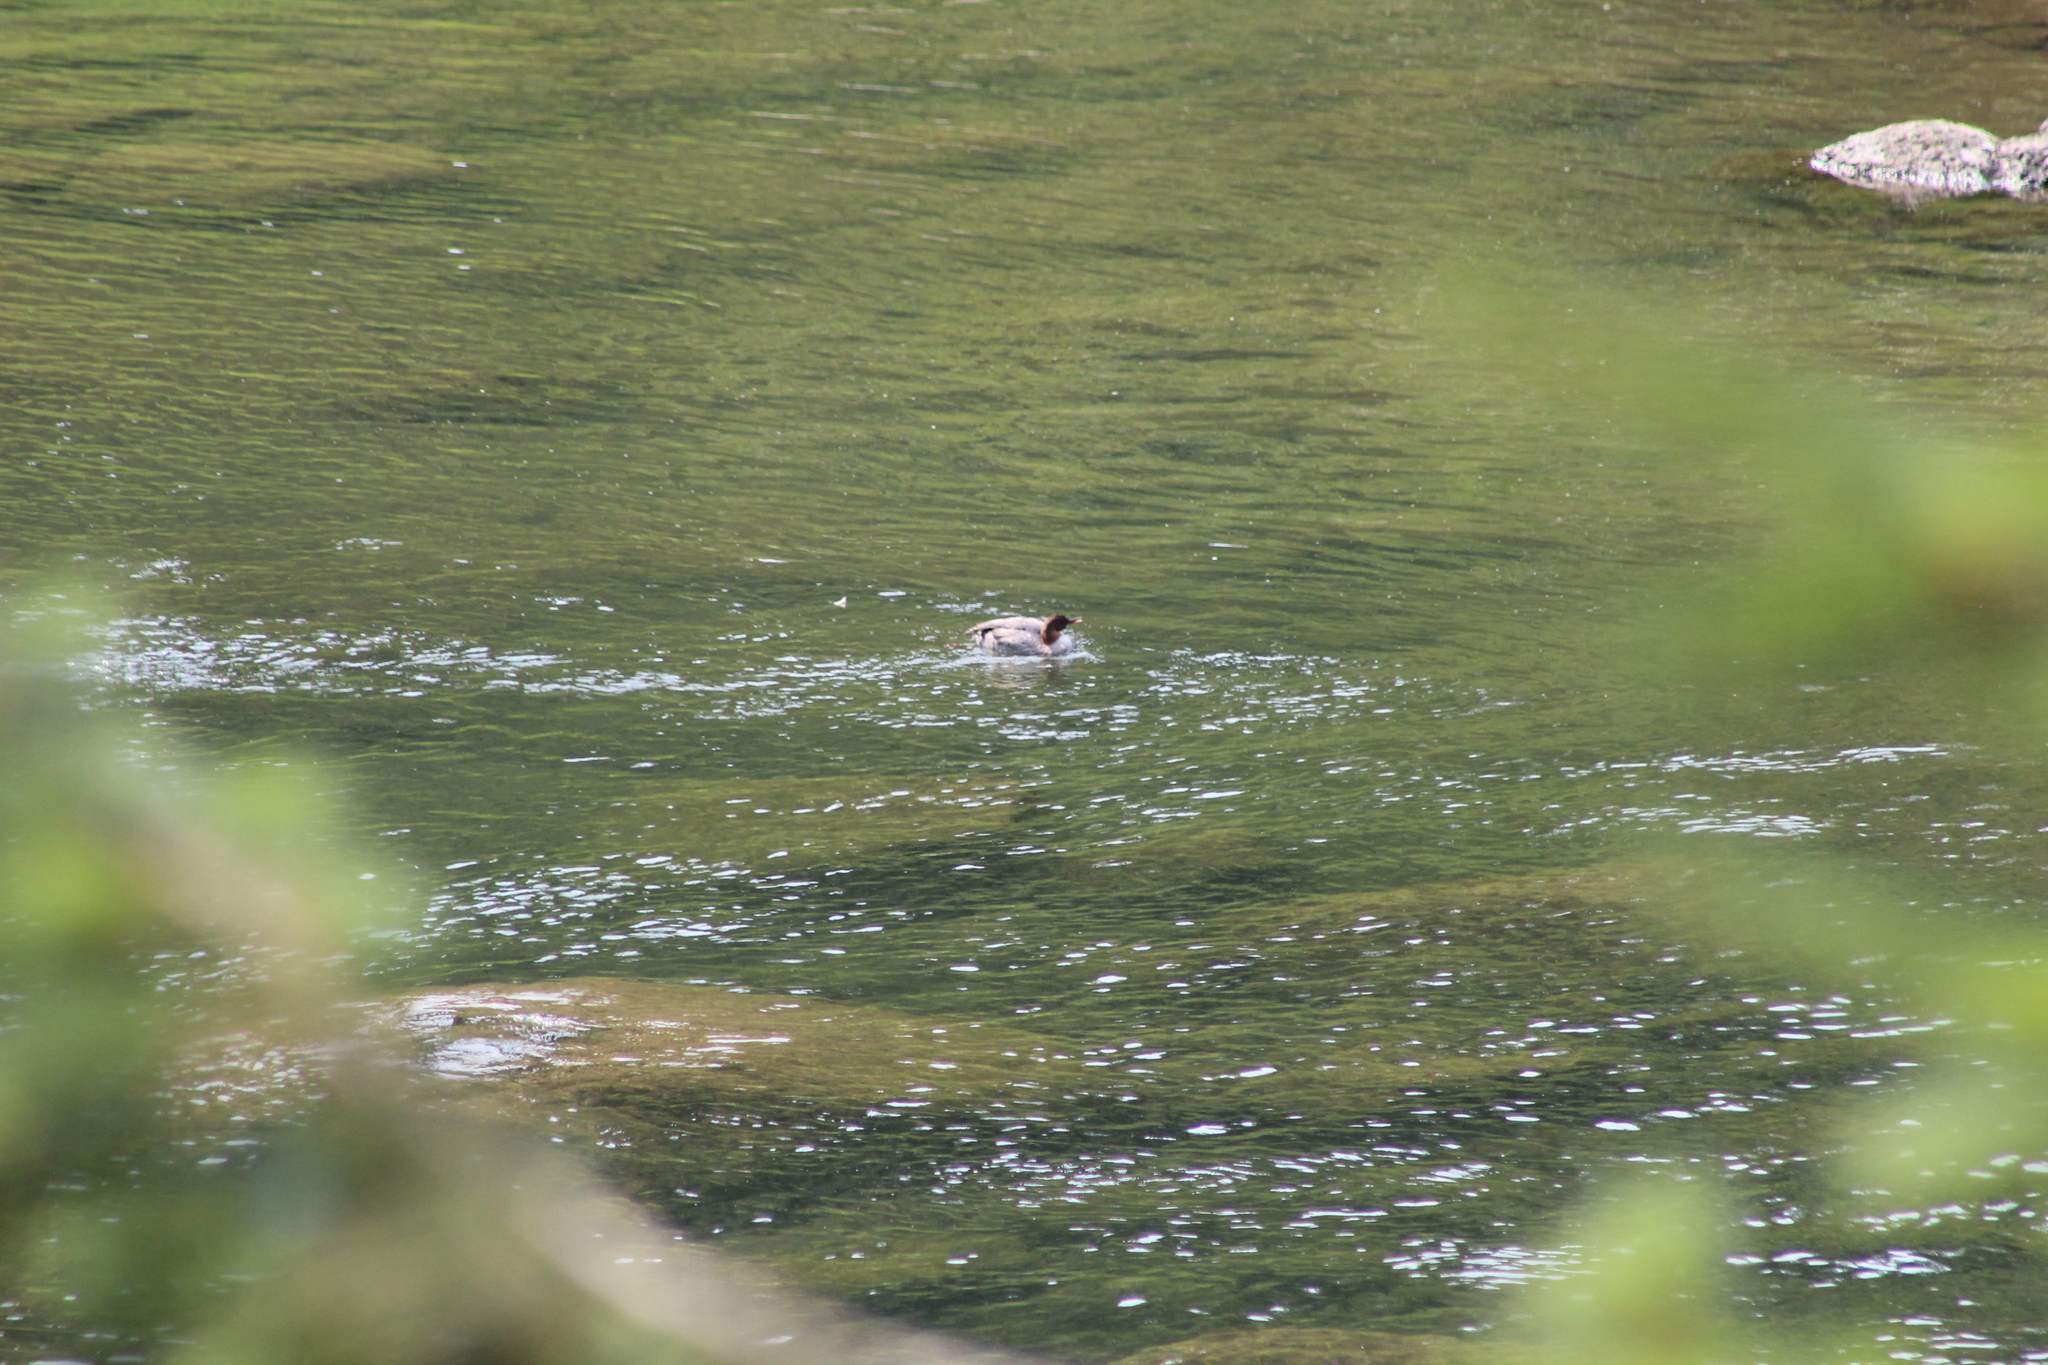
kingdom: Animalia
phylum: Chordata
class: Aves
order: Anseriformes
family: Anatidae
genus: Mergus
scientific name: Mergus merganser
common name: Common merganser
